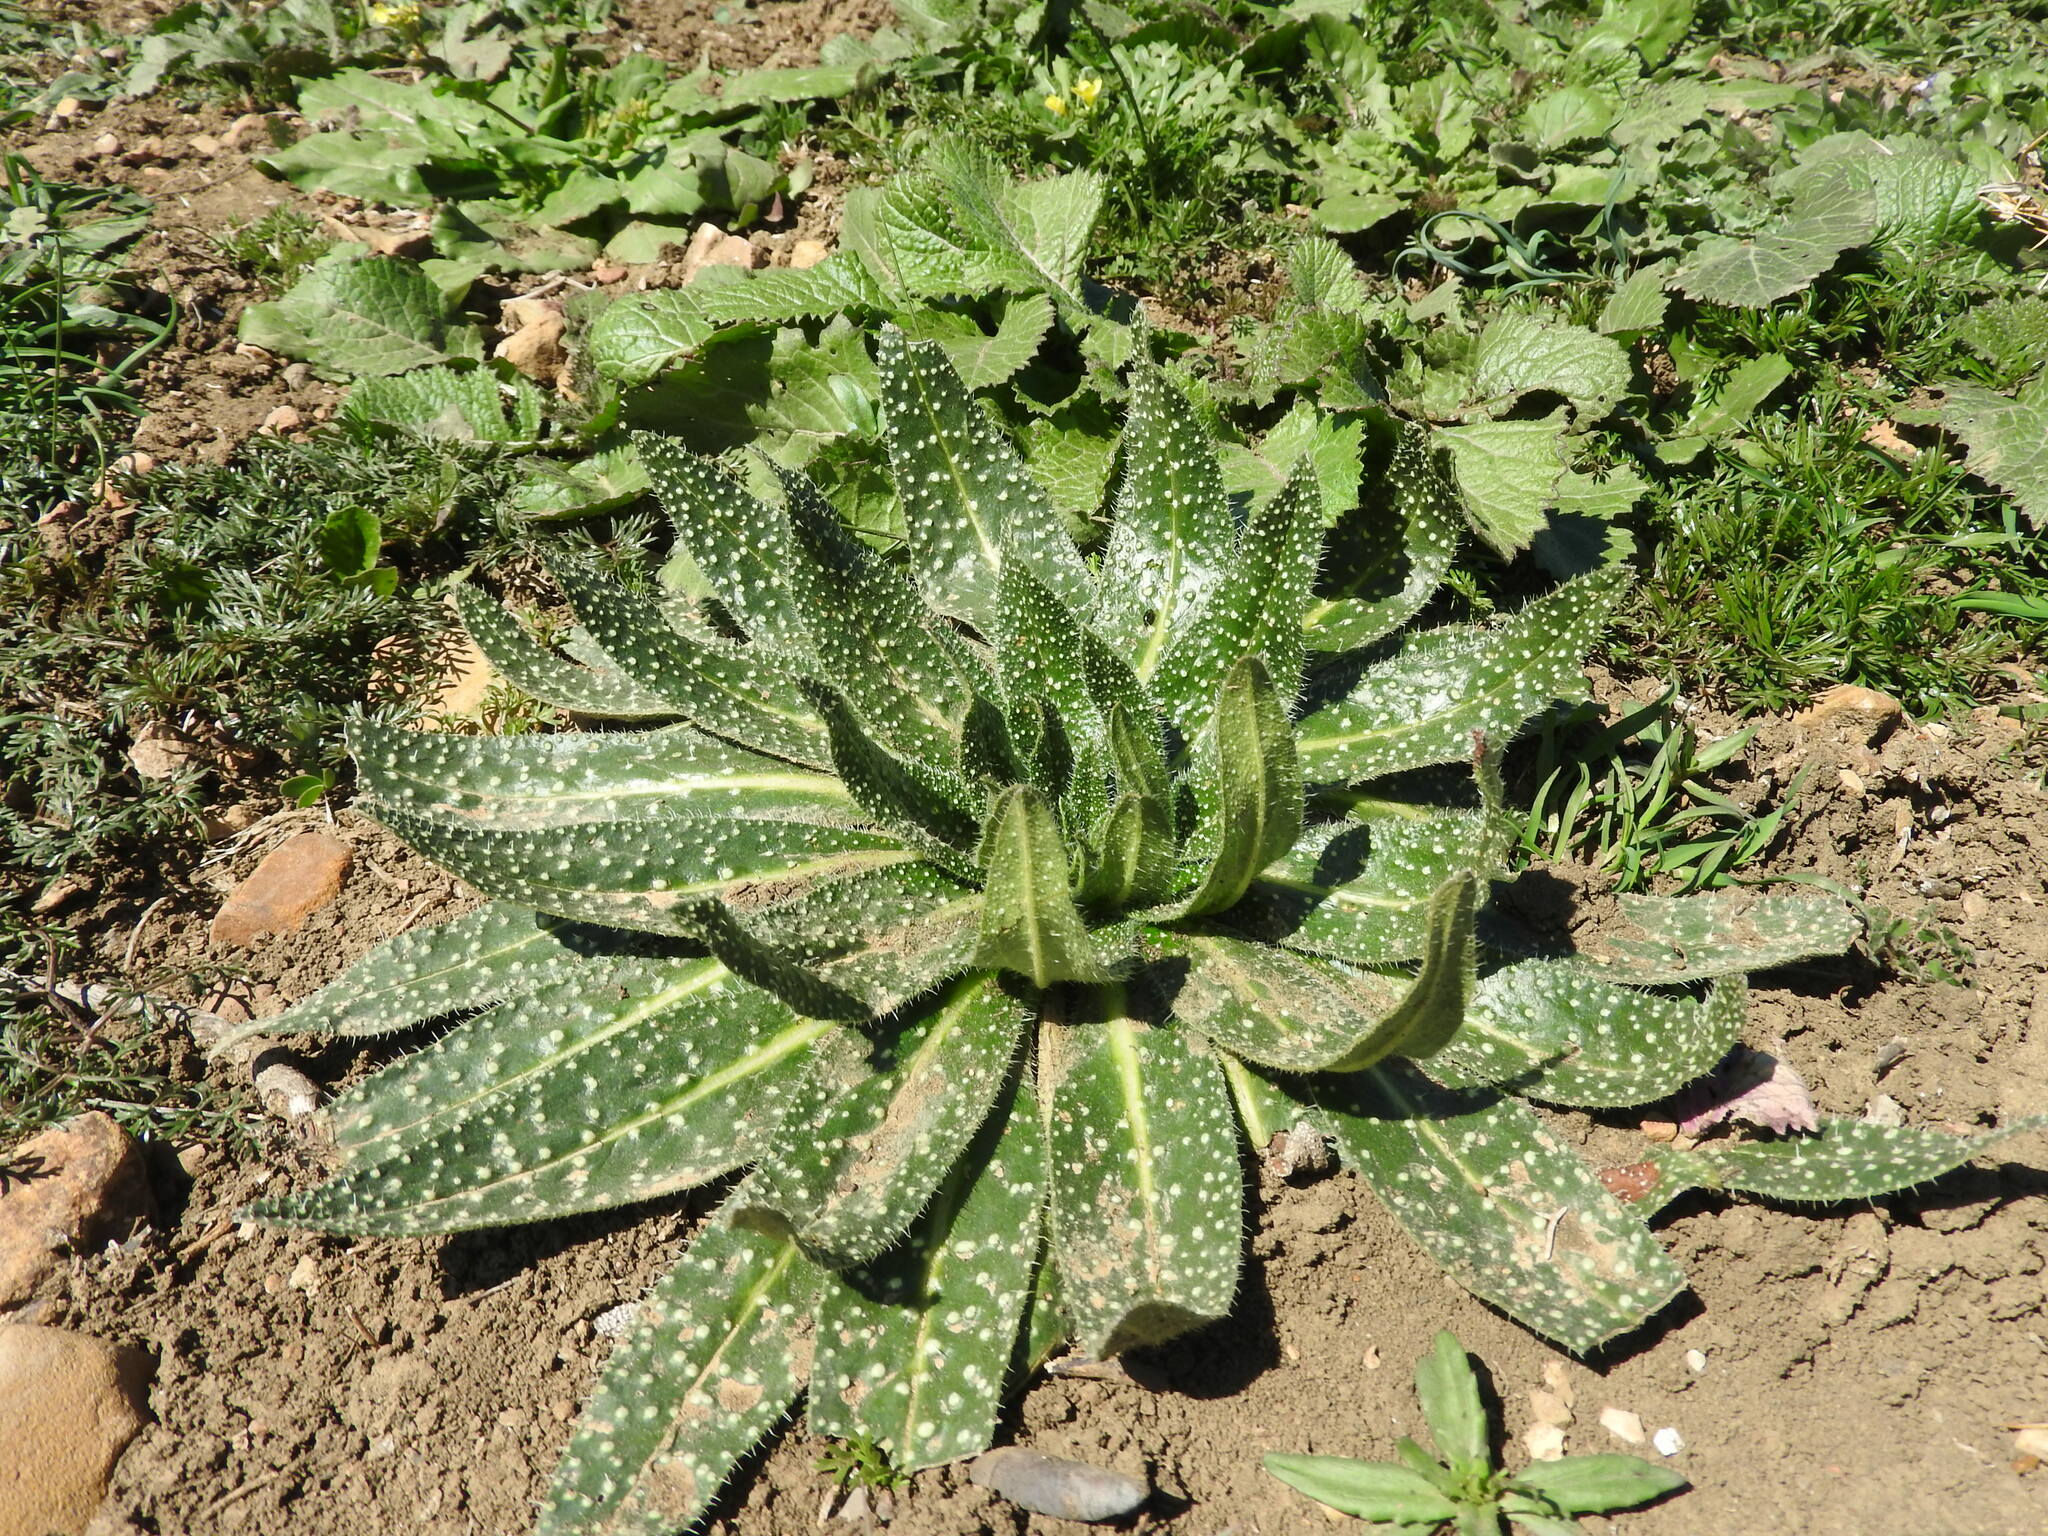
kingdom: Plantae
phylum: Tracheophyta
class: Magnoliopsida
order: Boraginales
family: Boraginaceae
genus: Echium
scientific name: Echium asperrimum
